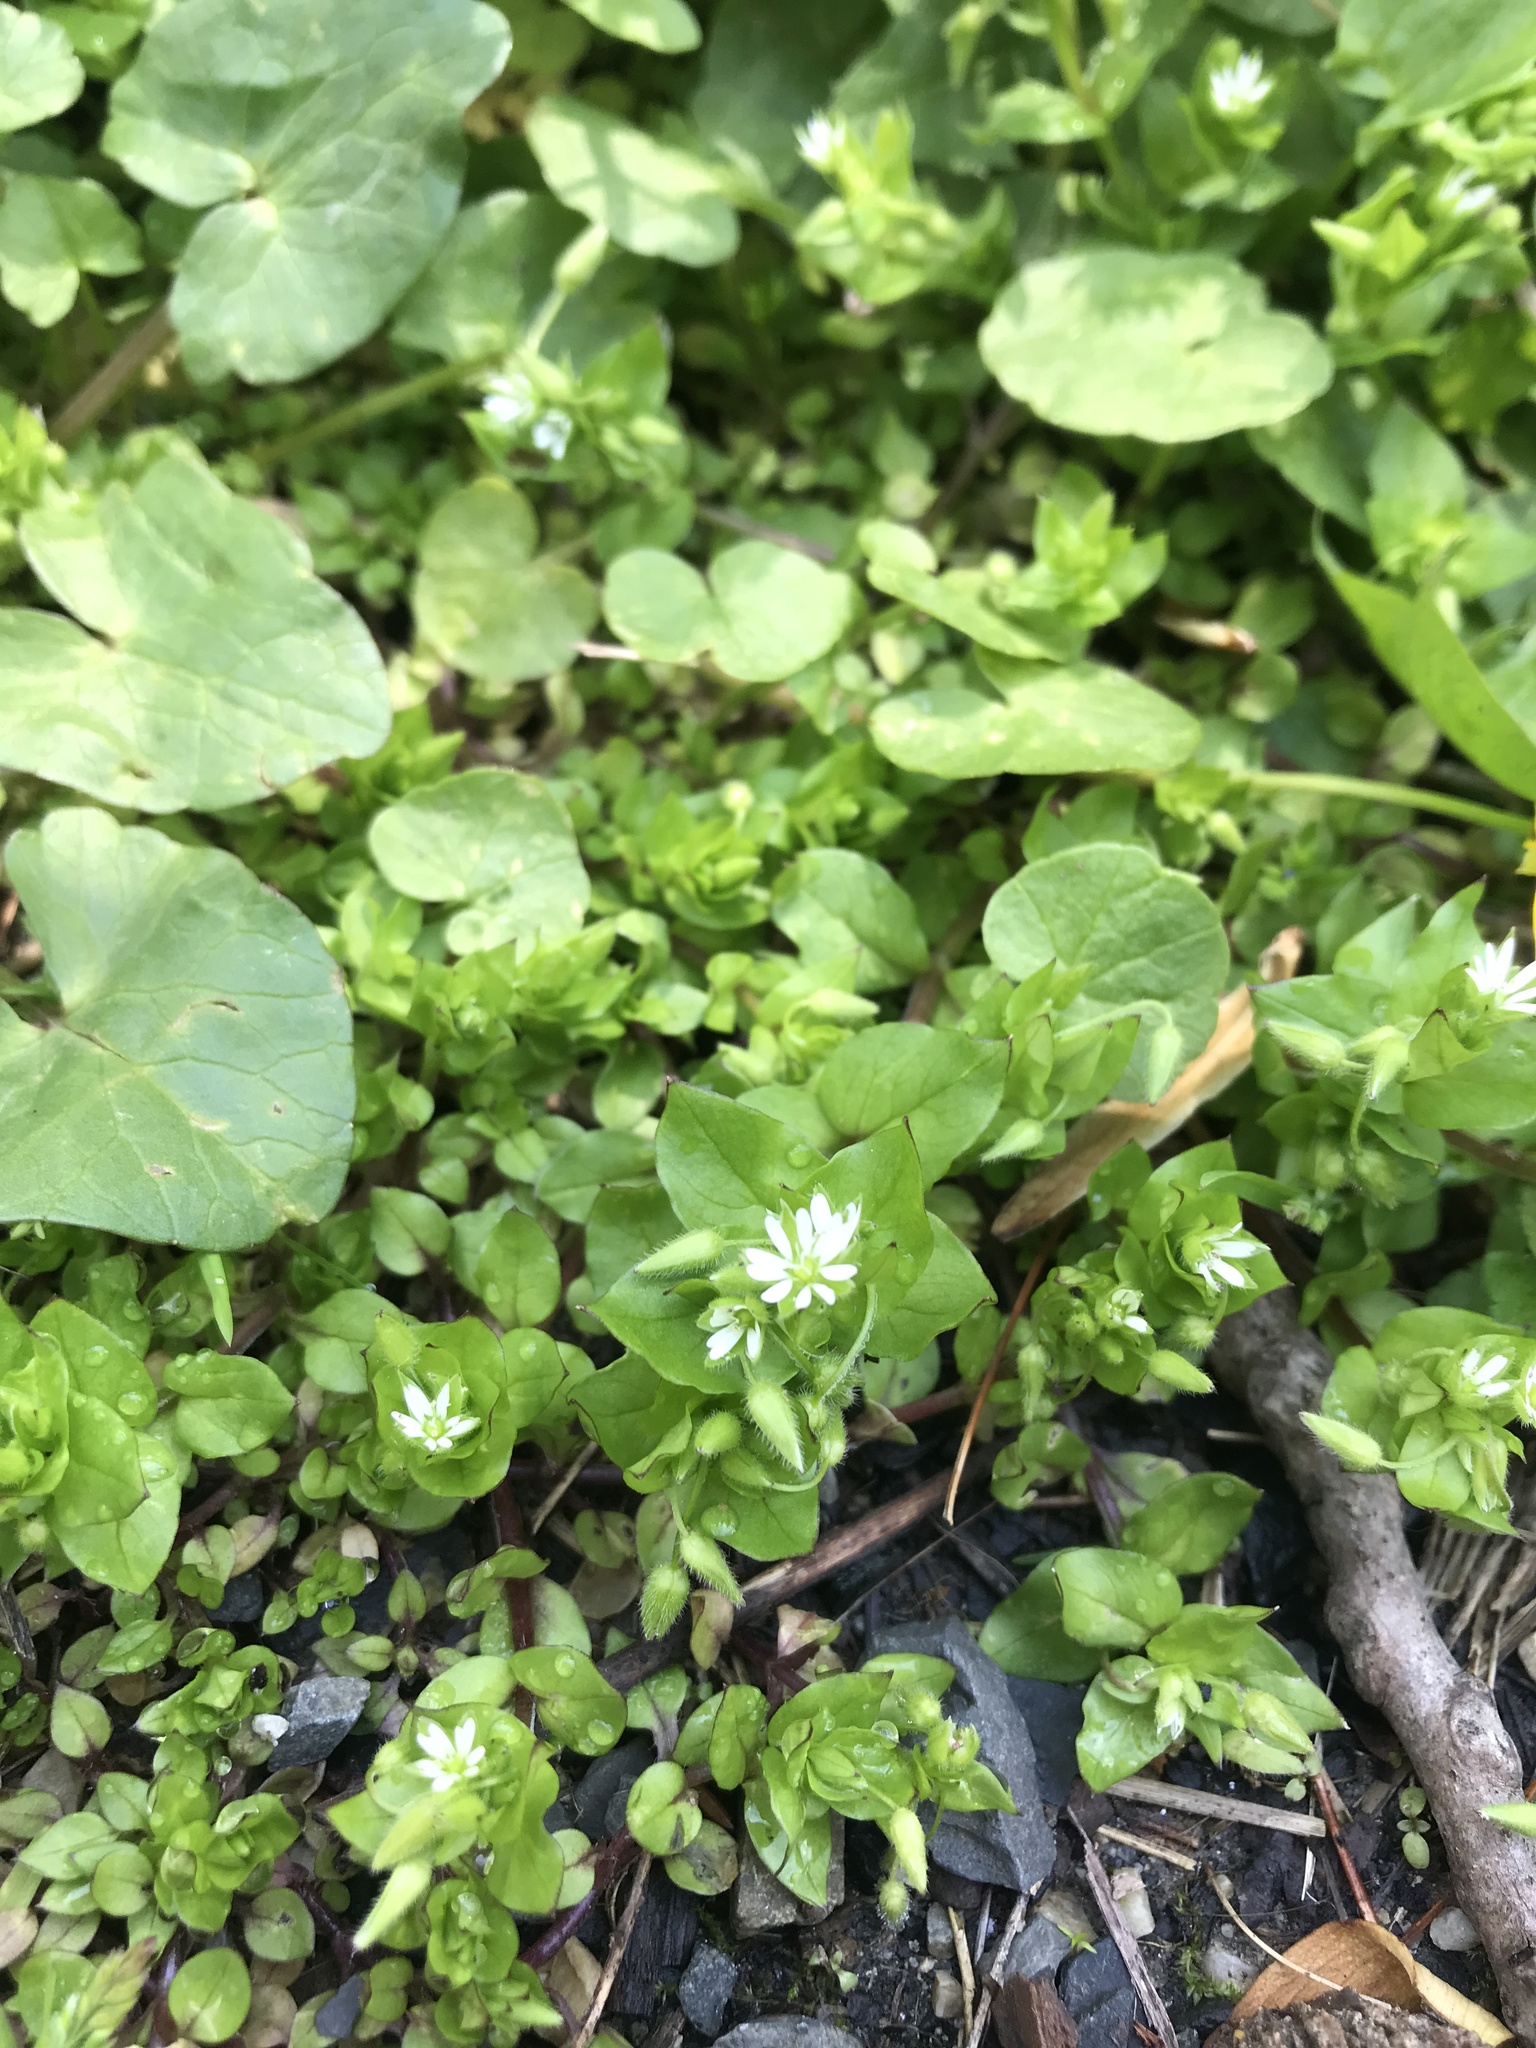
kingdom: Plantae
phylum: Tracheophyta
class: Magnoliopsida
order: Caryophyllales
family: Caryophyllaceae
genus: Stellaria
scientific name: Stellaria media
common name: Common chickweed
